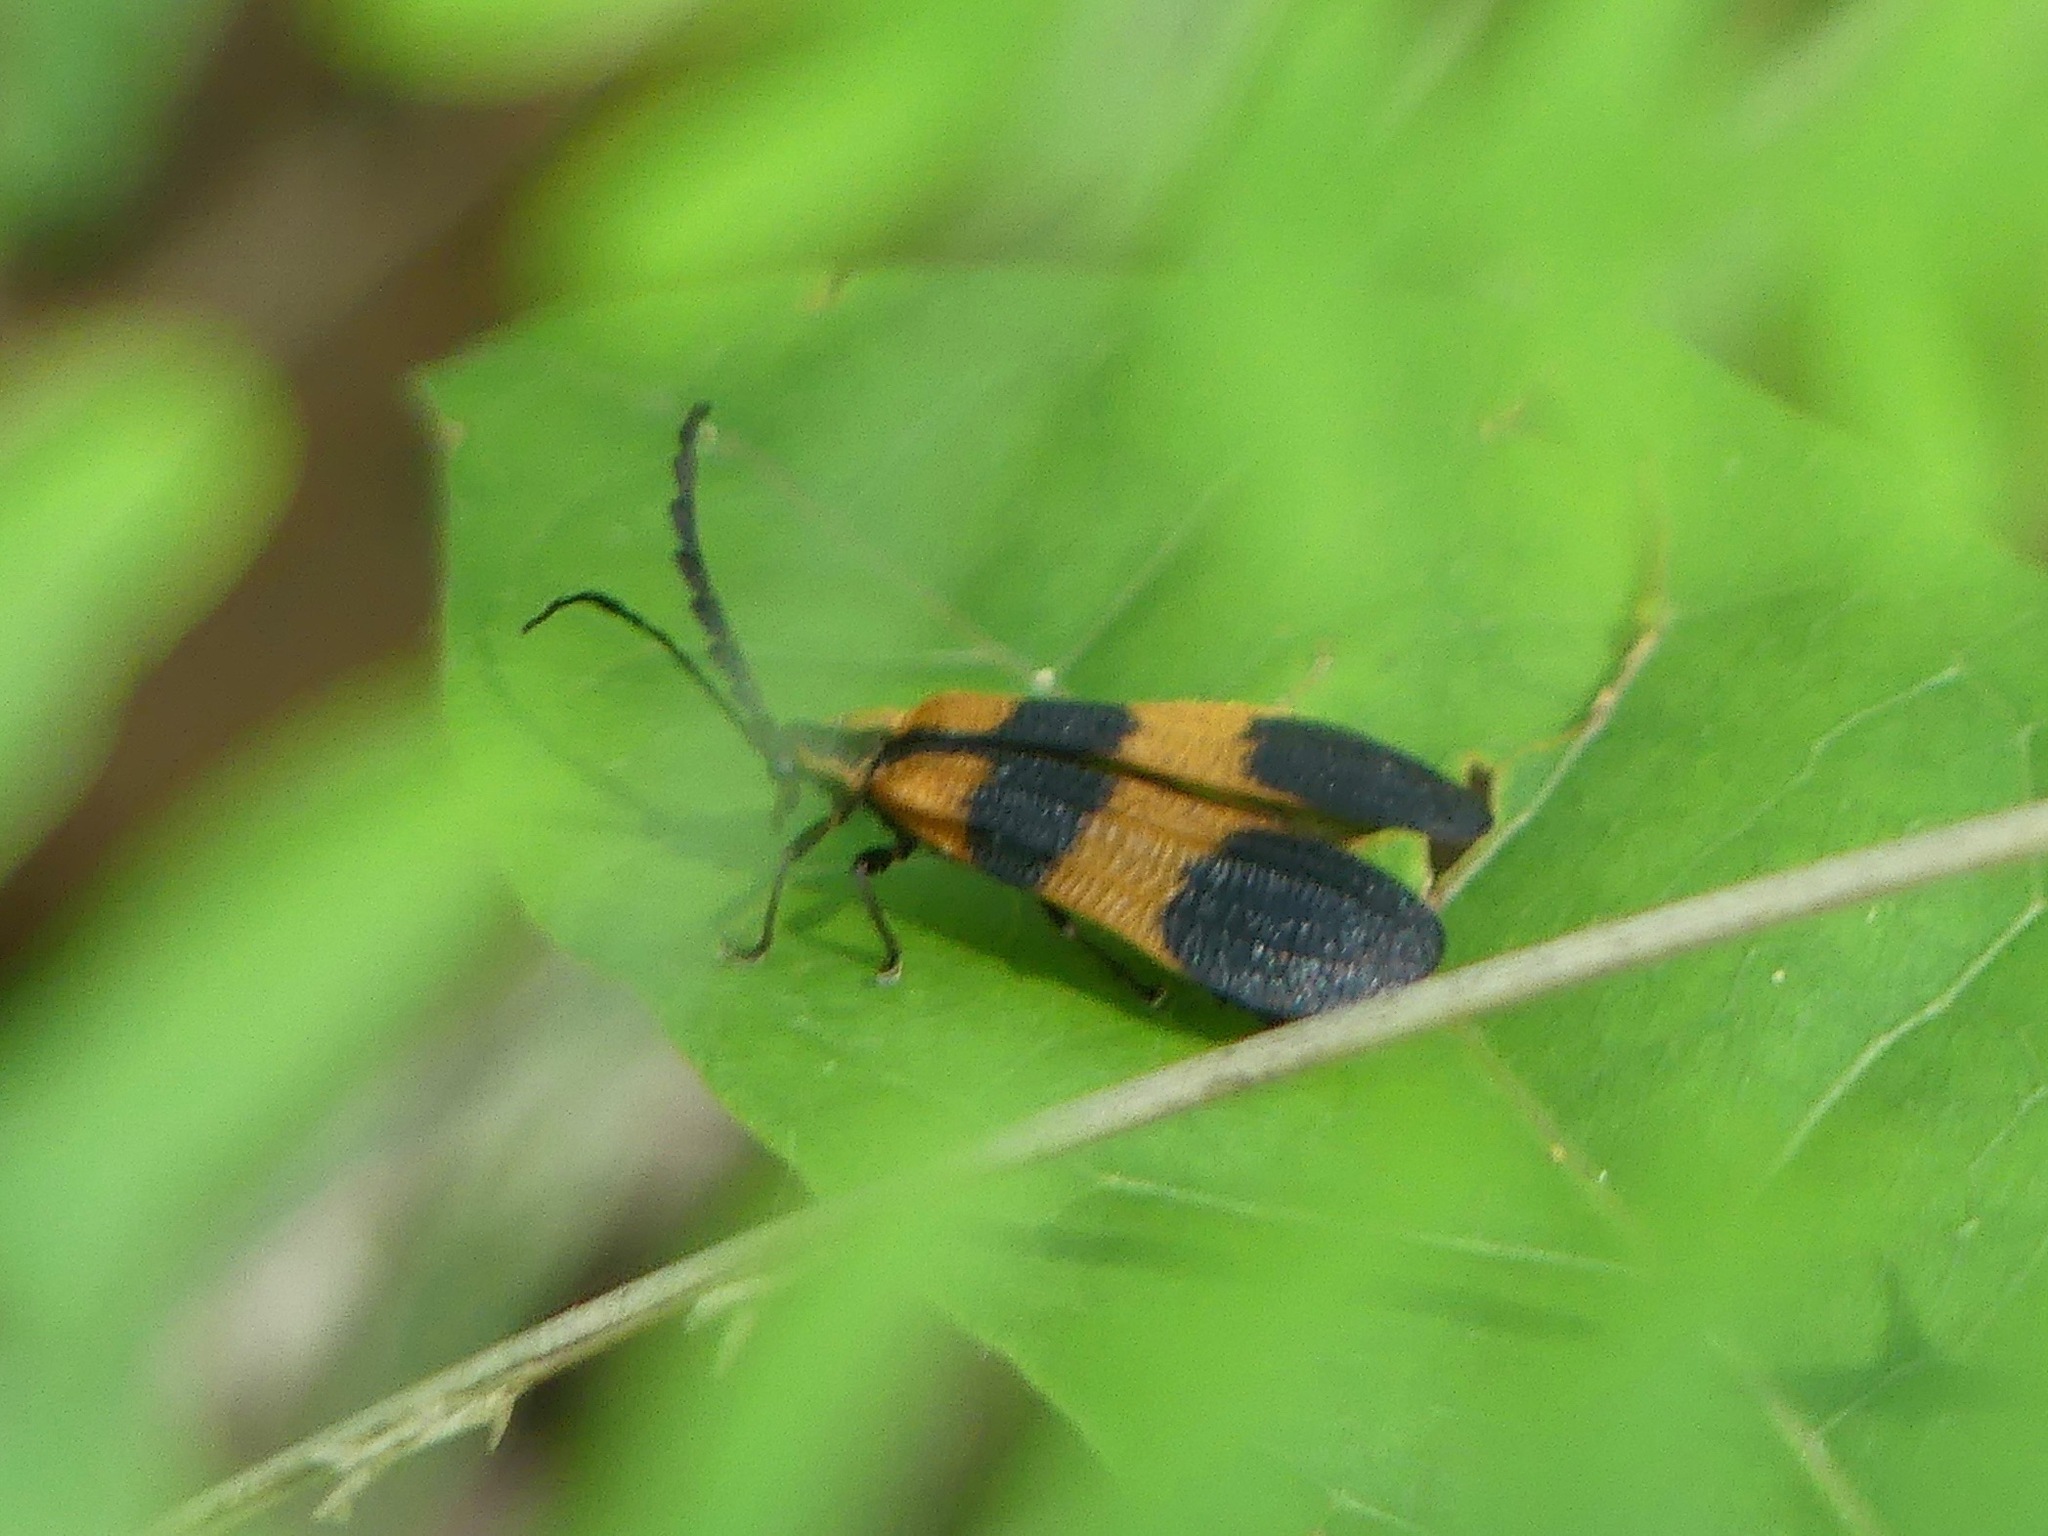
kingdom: Animalia
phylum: Arthropoda
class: Insecta
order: Coleoptera
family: Lycidae
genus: Calopteron
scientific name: Calopteron discrepans
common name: Banded net-winged beetle
